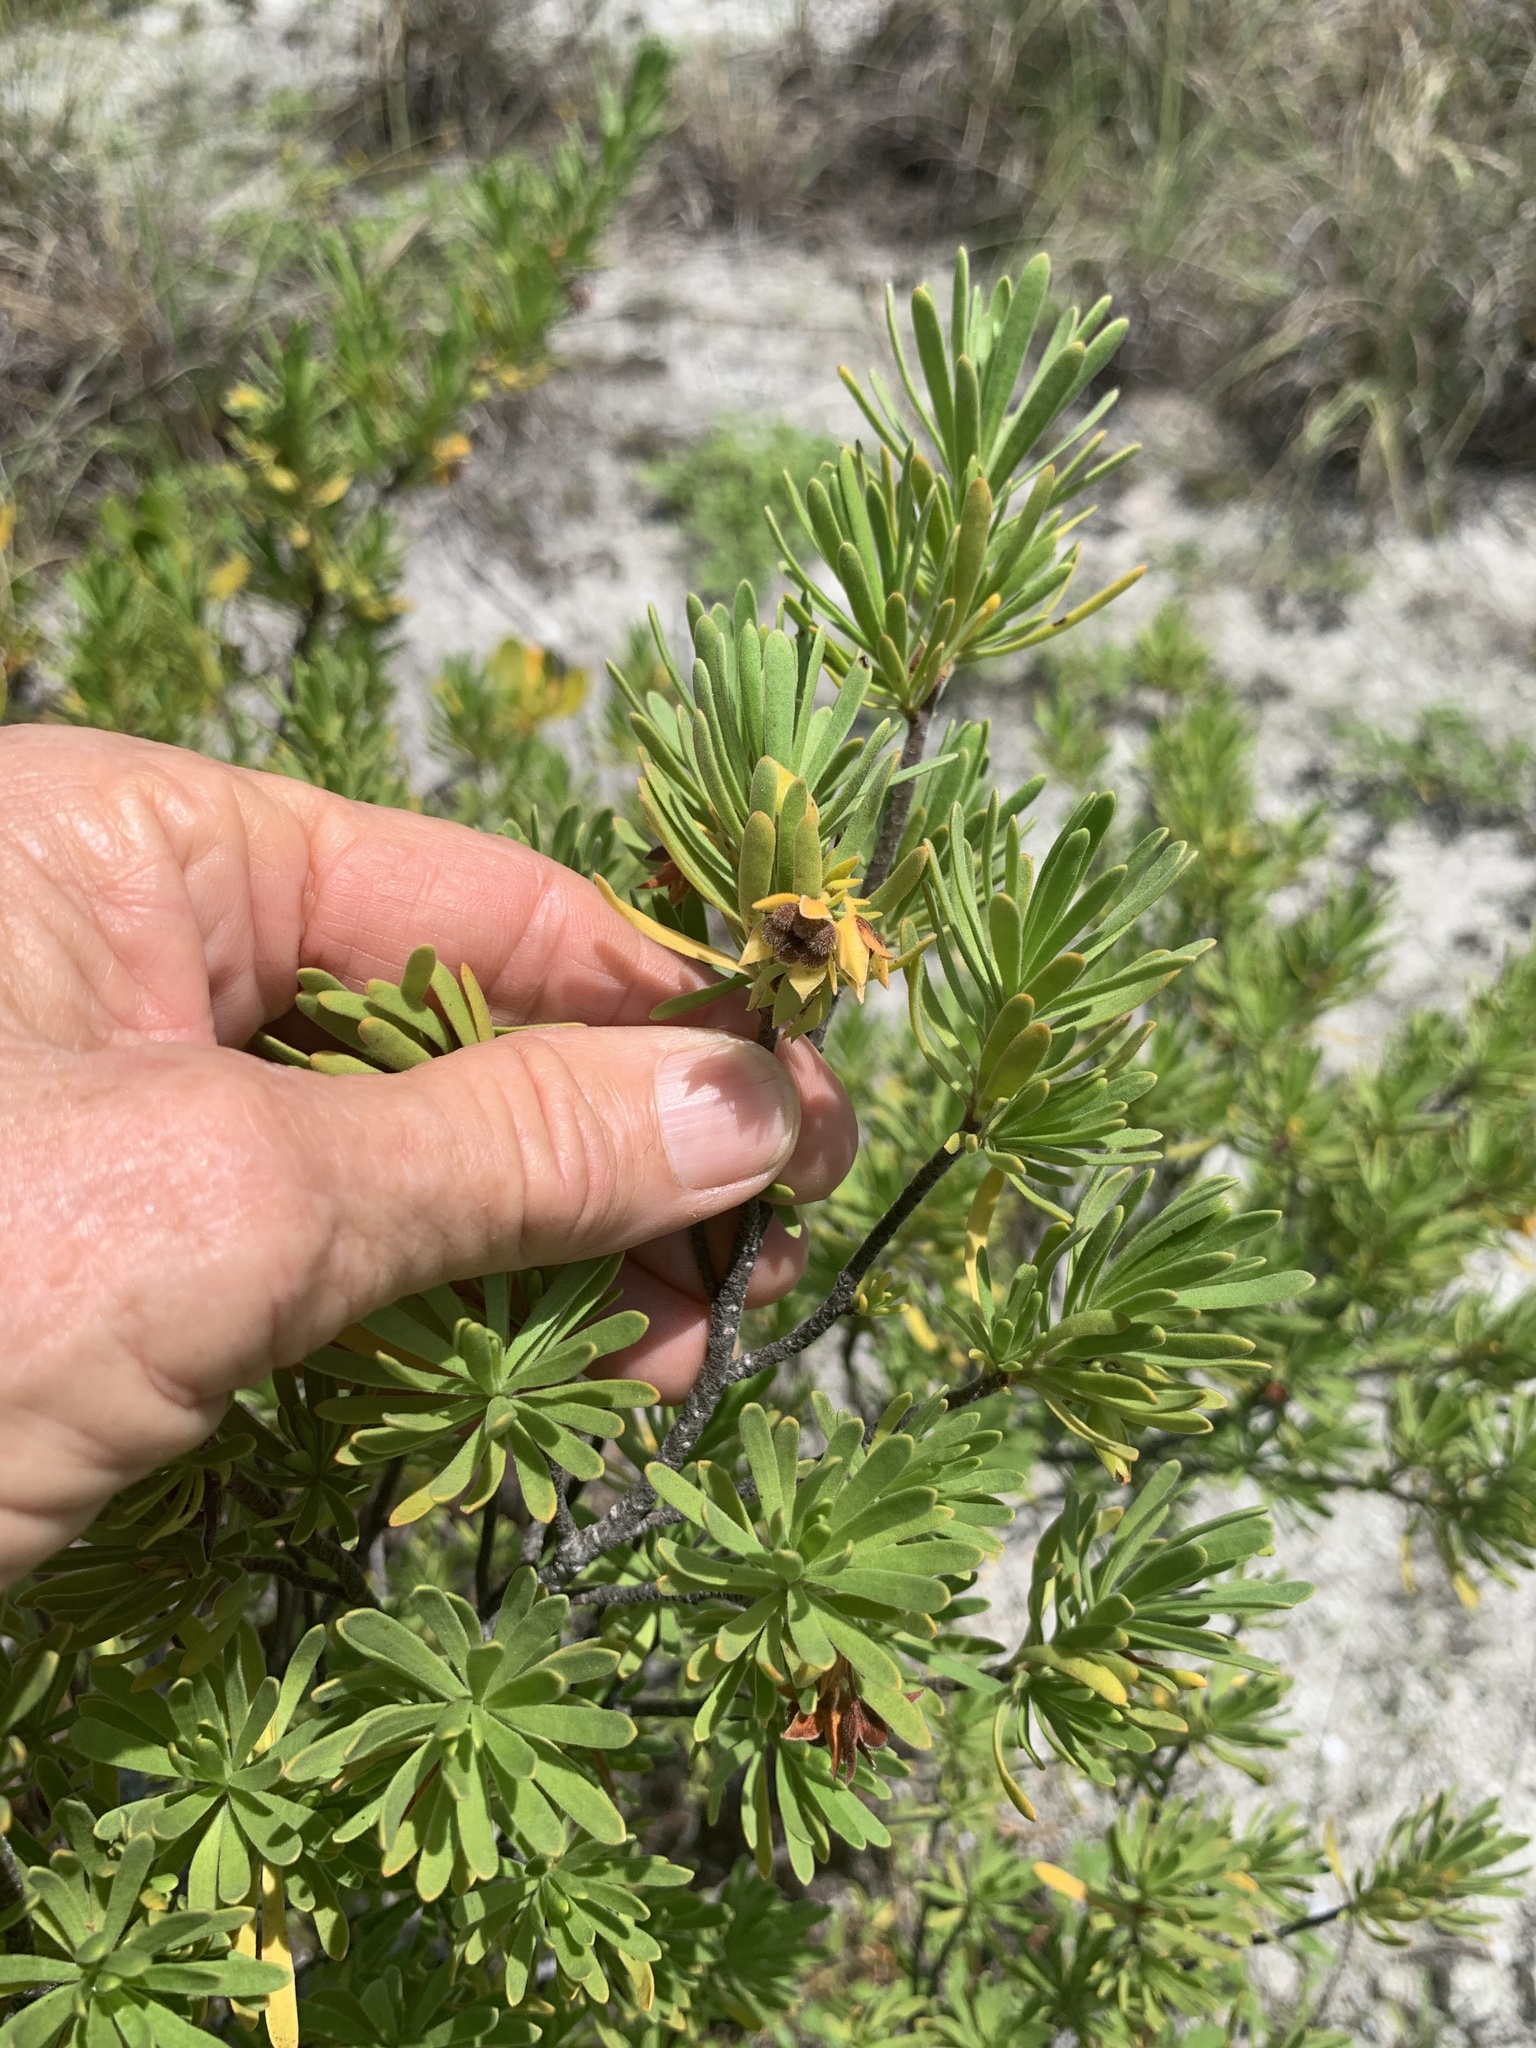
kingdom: Plantae
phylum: Tracheophyta
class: Magnoliopsida
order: Fabales
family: Surianaceae
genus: Suriana
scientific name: Suriana maritima
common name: Bay-cedar
